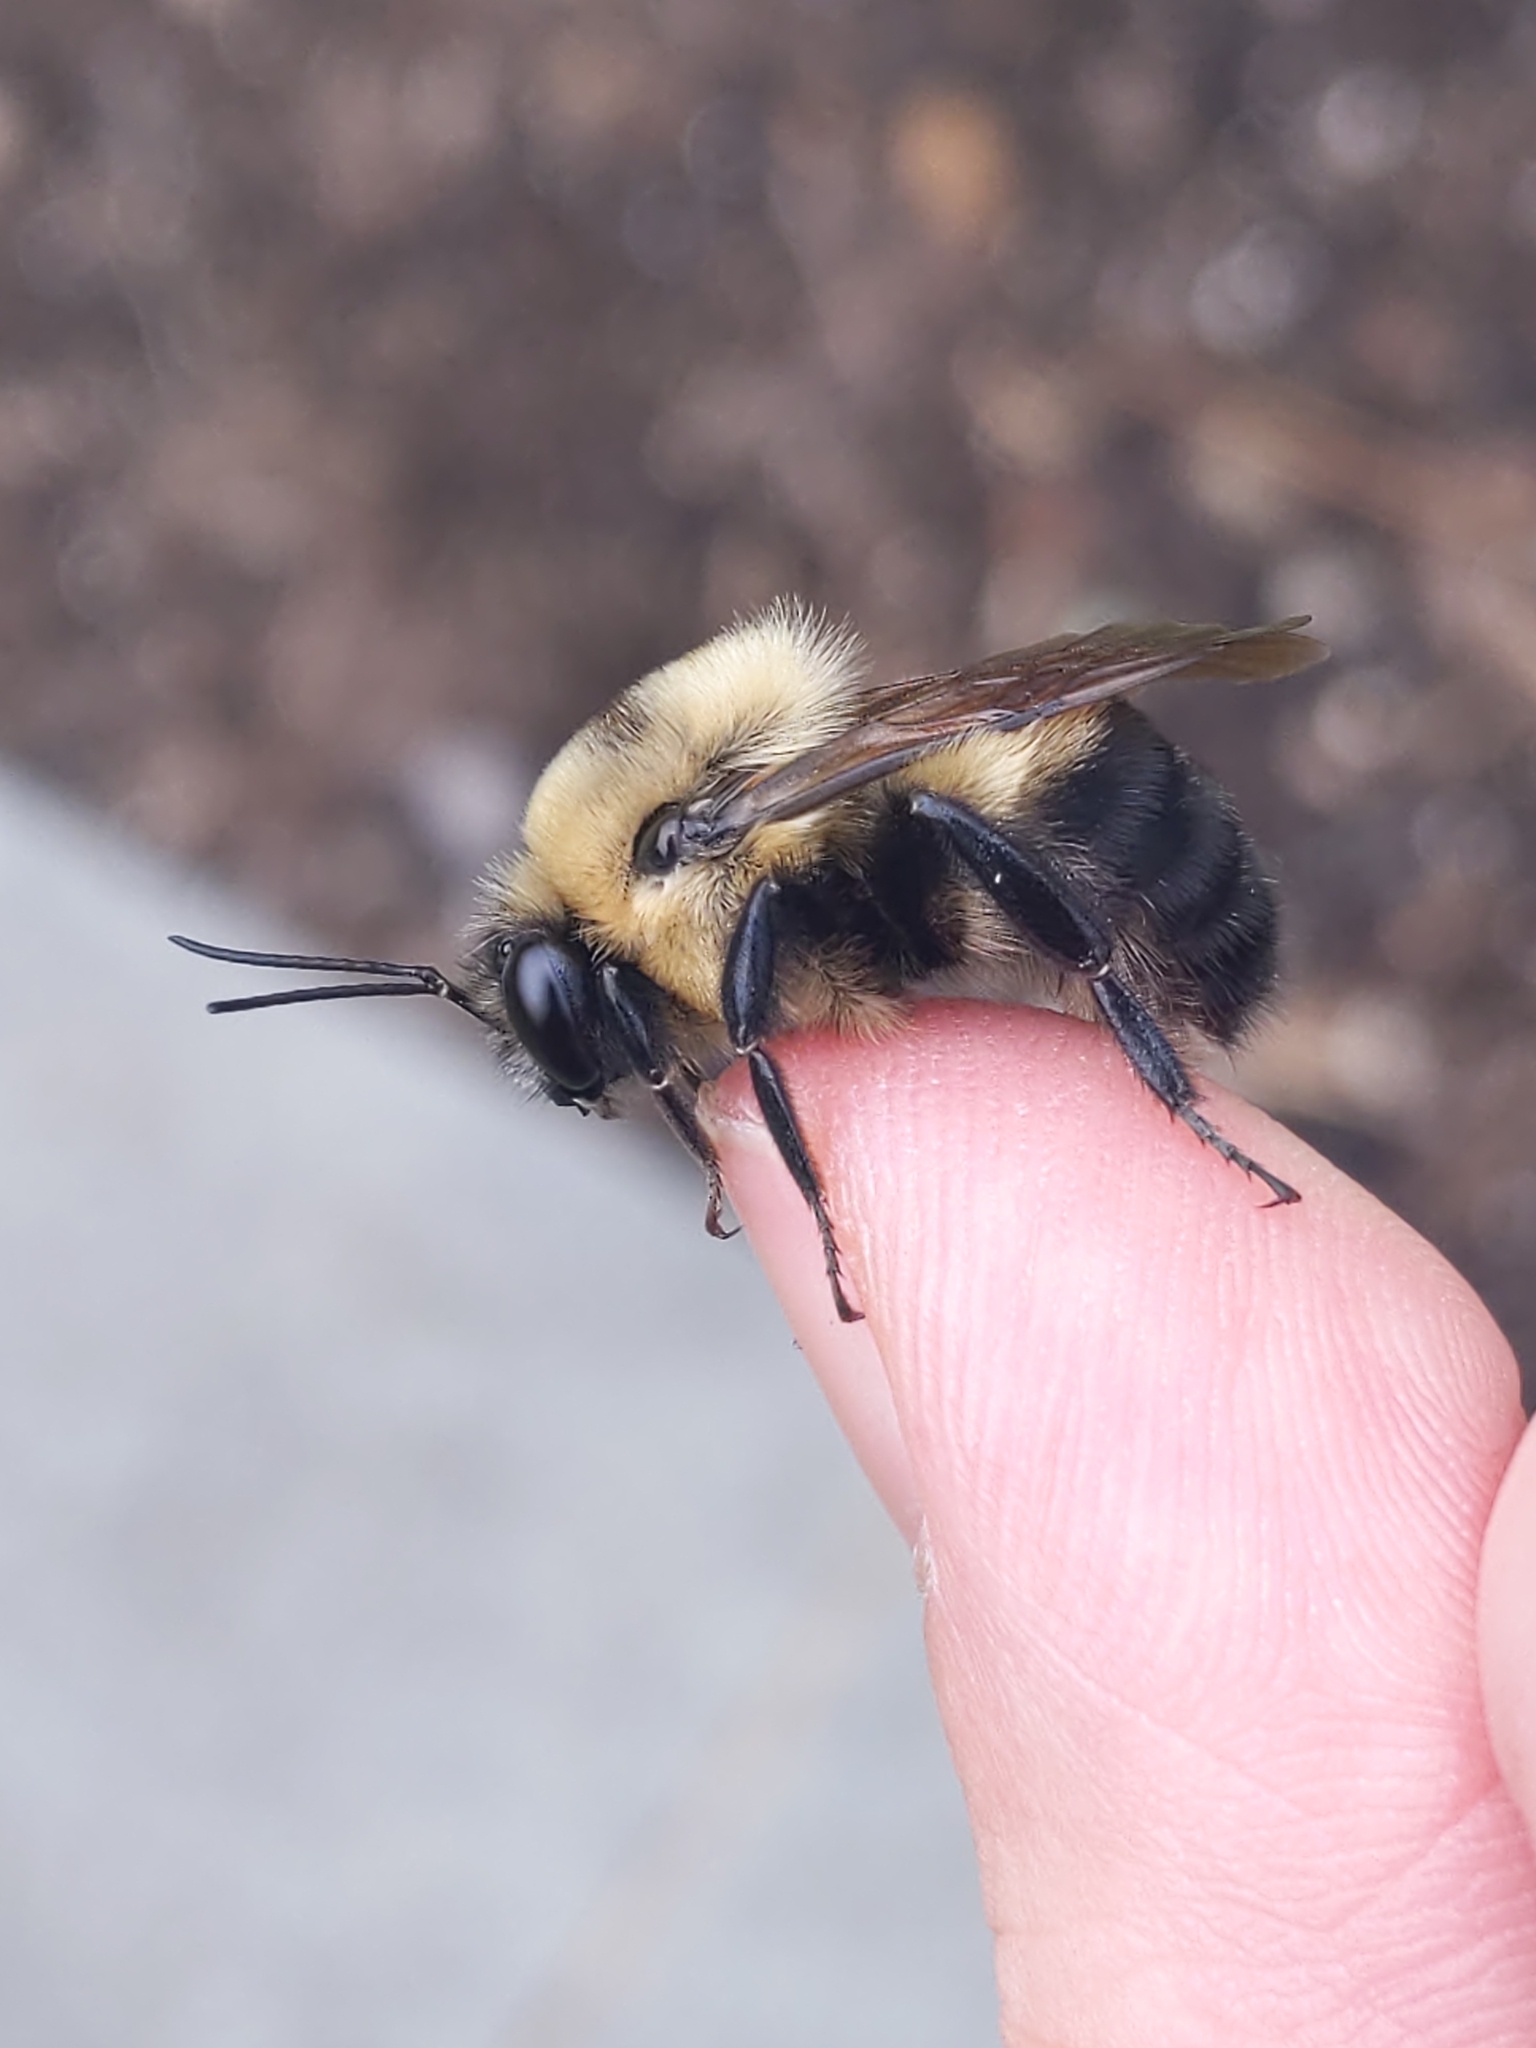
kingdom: Animalia
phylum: Arthropoda
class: Insecta
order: Hymenoptera
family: Apidae
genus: Bombus
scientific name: Bombus griseocollis
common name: Brown-belted bumble bee
